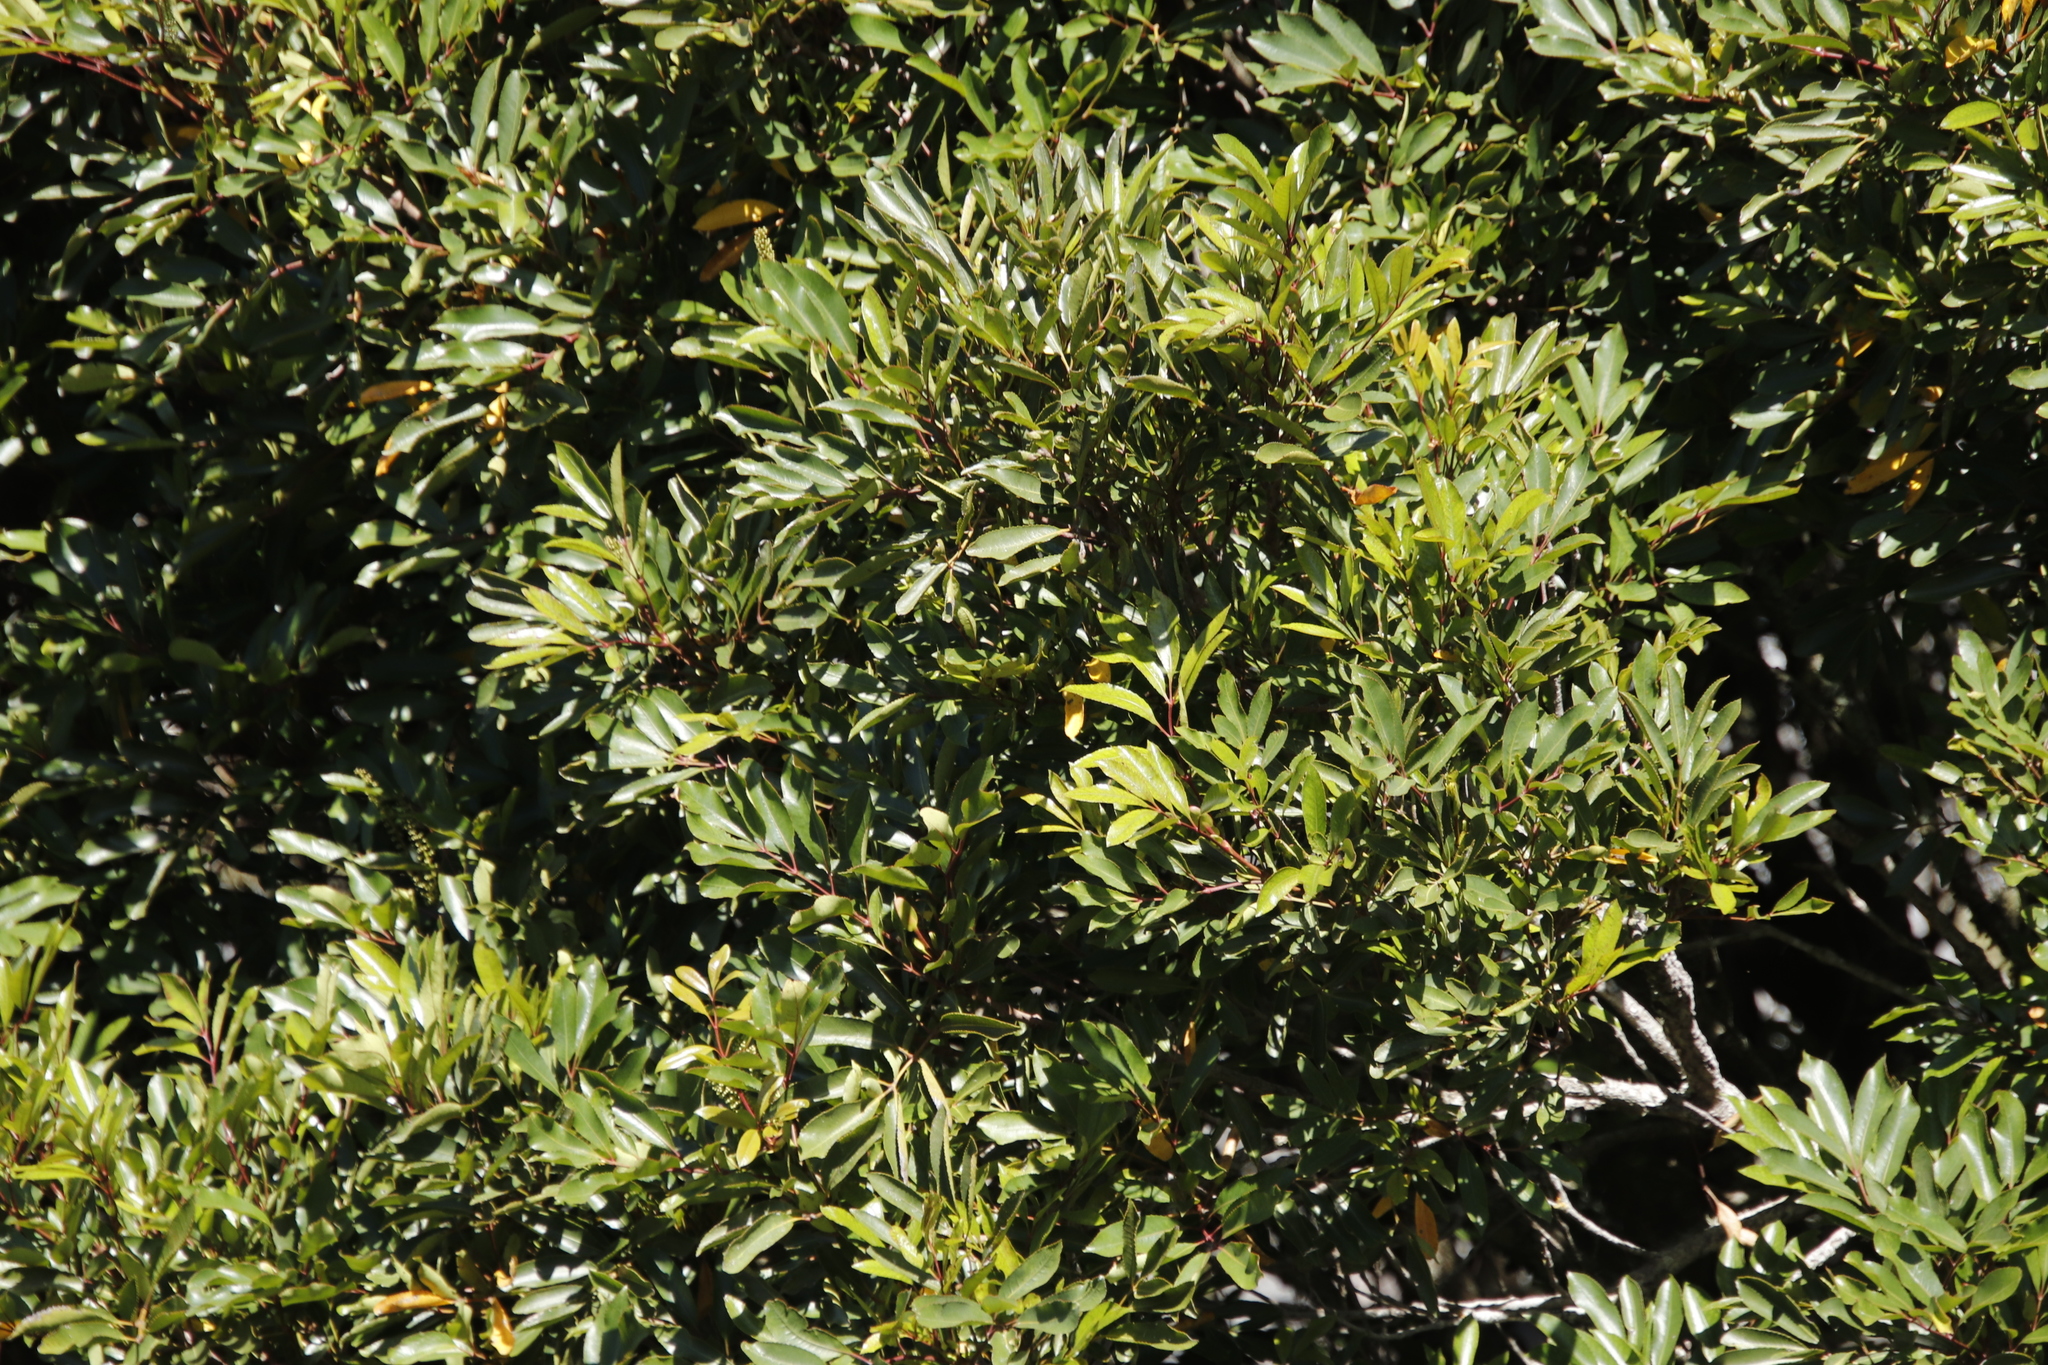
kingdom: Plantae
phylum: Tracheophyta
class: Magnoliopsida
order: Oxalidales
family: Cunoniaceae
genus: Cunonia
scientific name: Cunonia capensis
